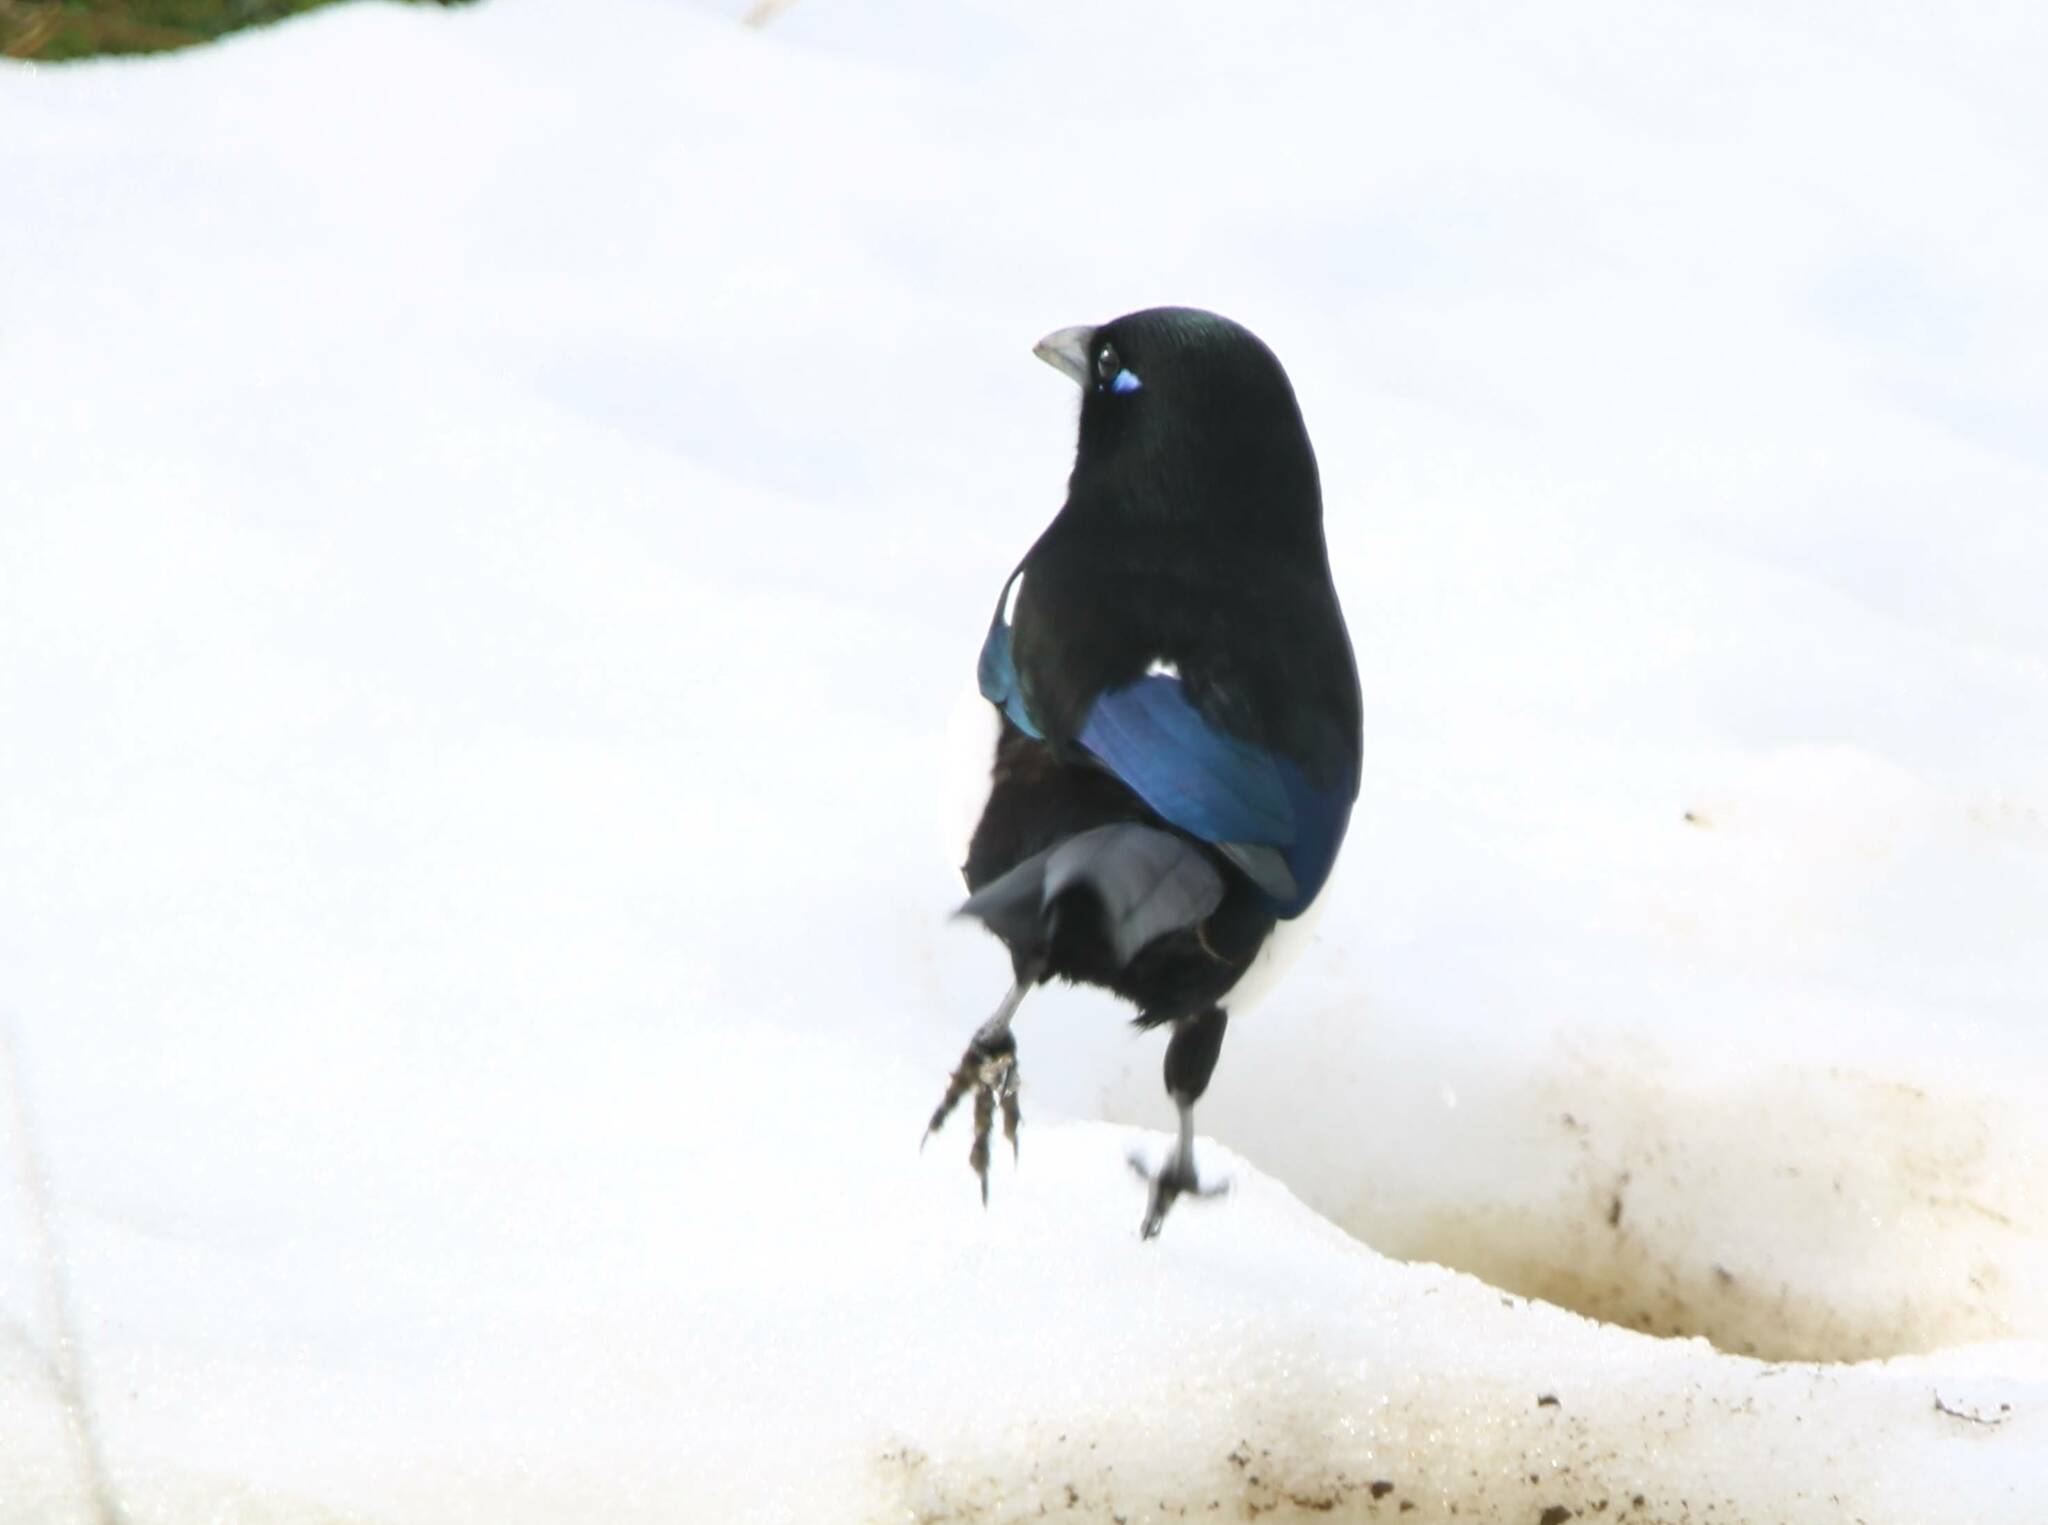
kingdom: Animalia
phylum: Chordata
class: Aves
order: Passeriformes
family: Corvidae
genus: Pica
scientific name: Pica mauritanica
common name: Maghreb magpie
